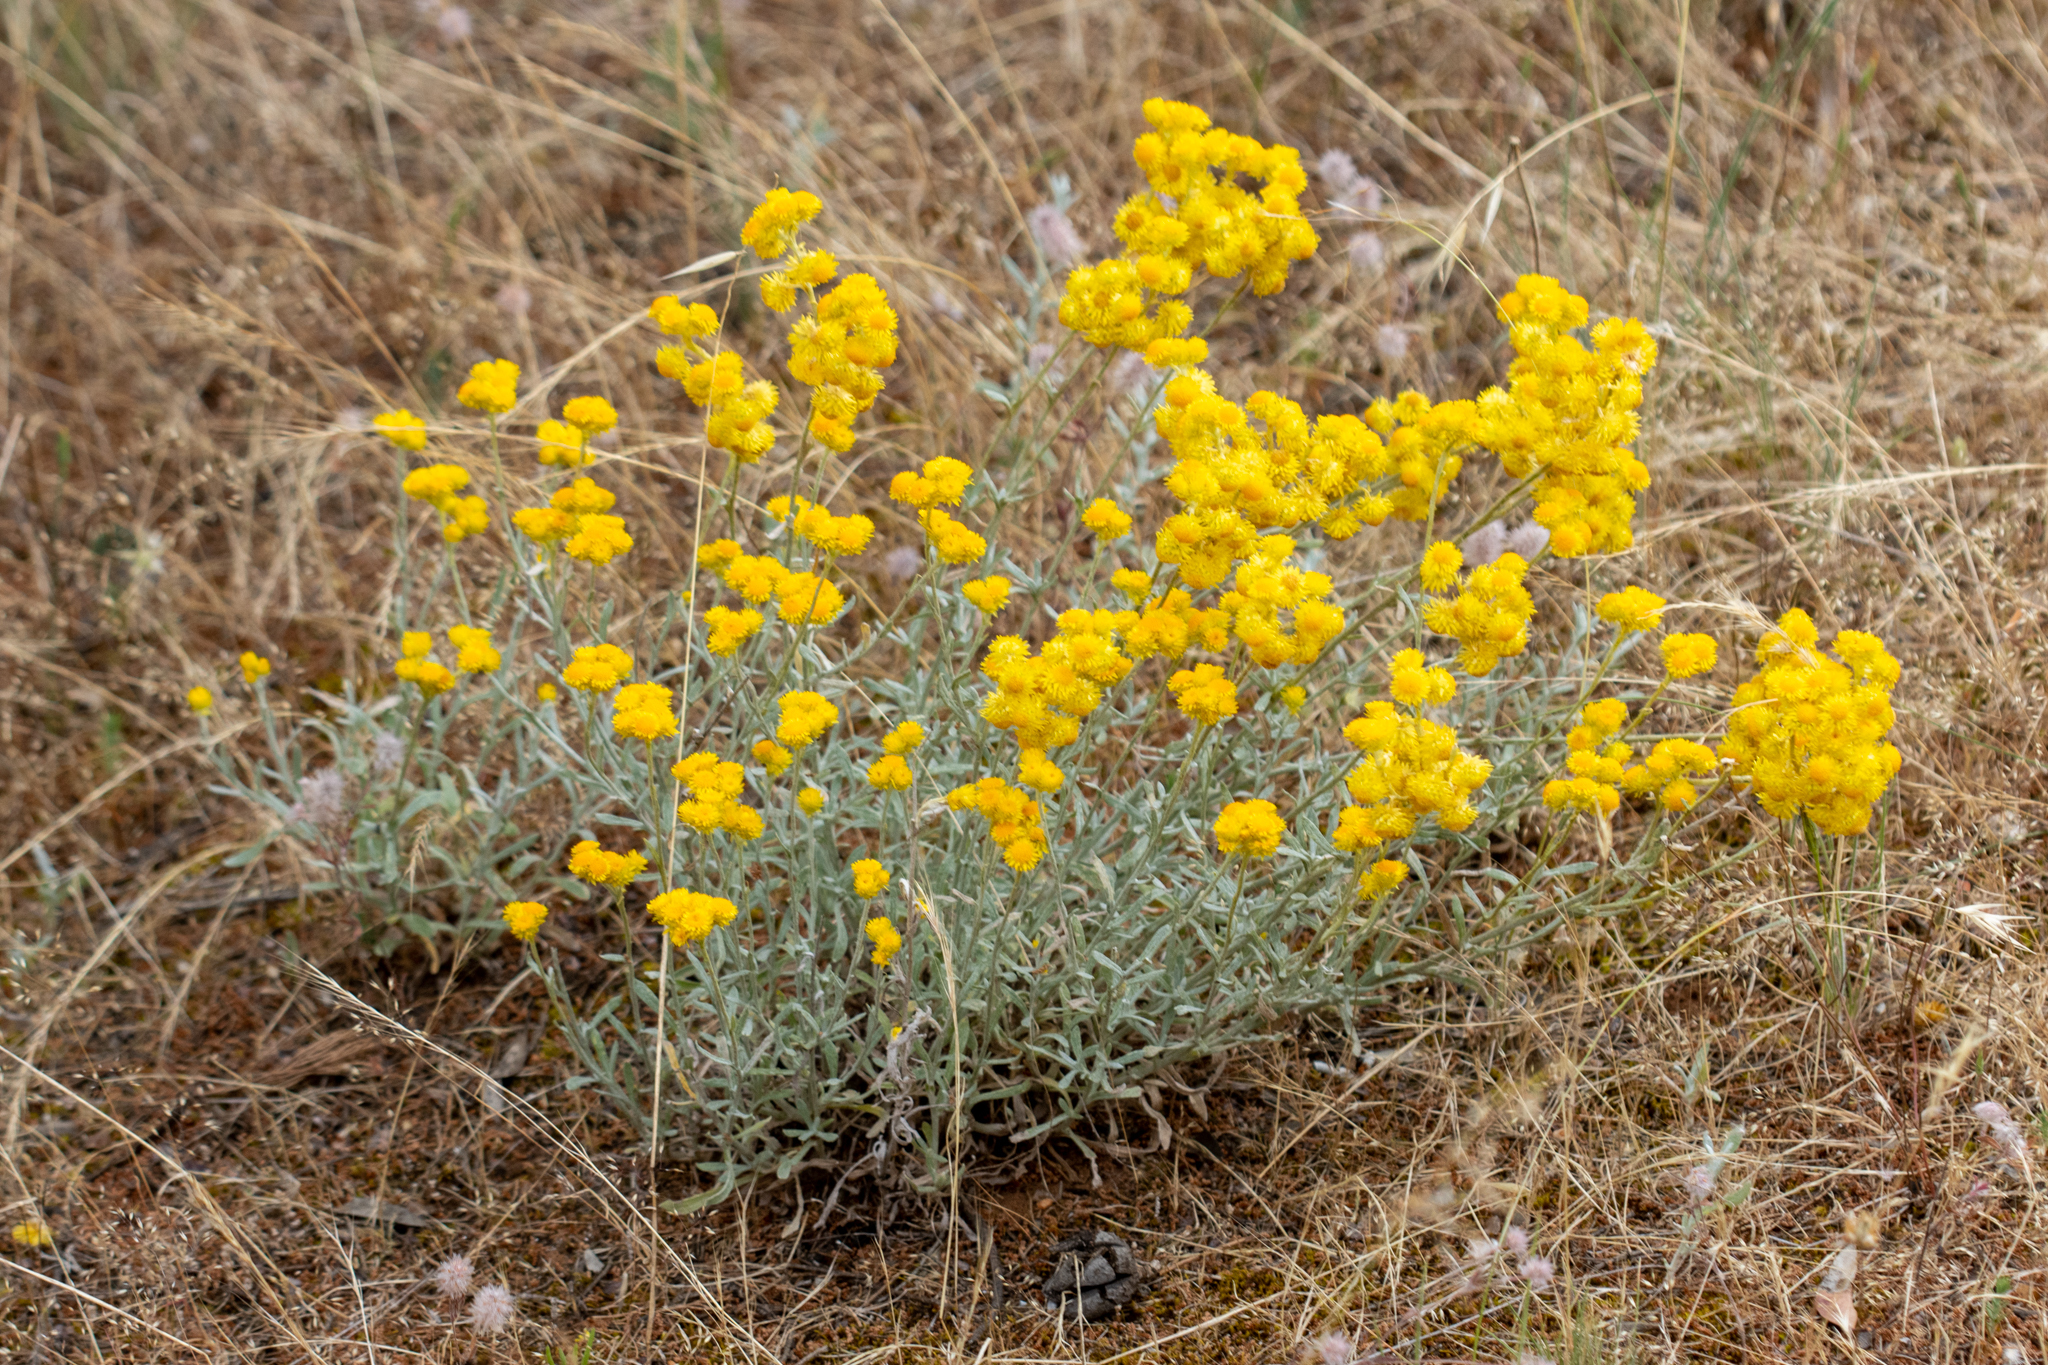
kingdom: Plantae
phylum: Tracheophyta
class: Magnoliopsida
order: Asterales
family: Asteraceae
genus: Chrysocephalum
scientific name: Chrysocephalum apiculatum
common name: Common everlasting
